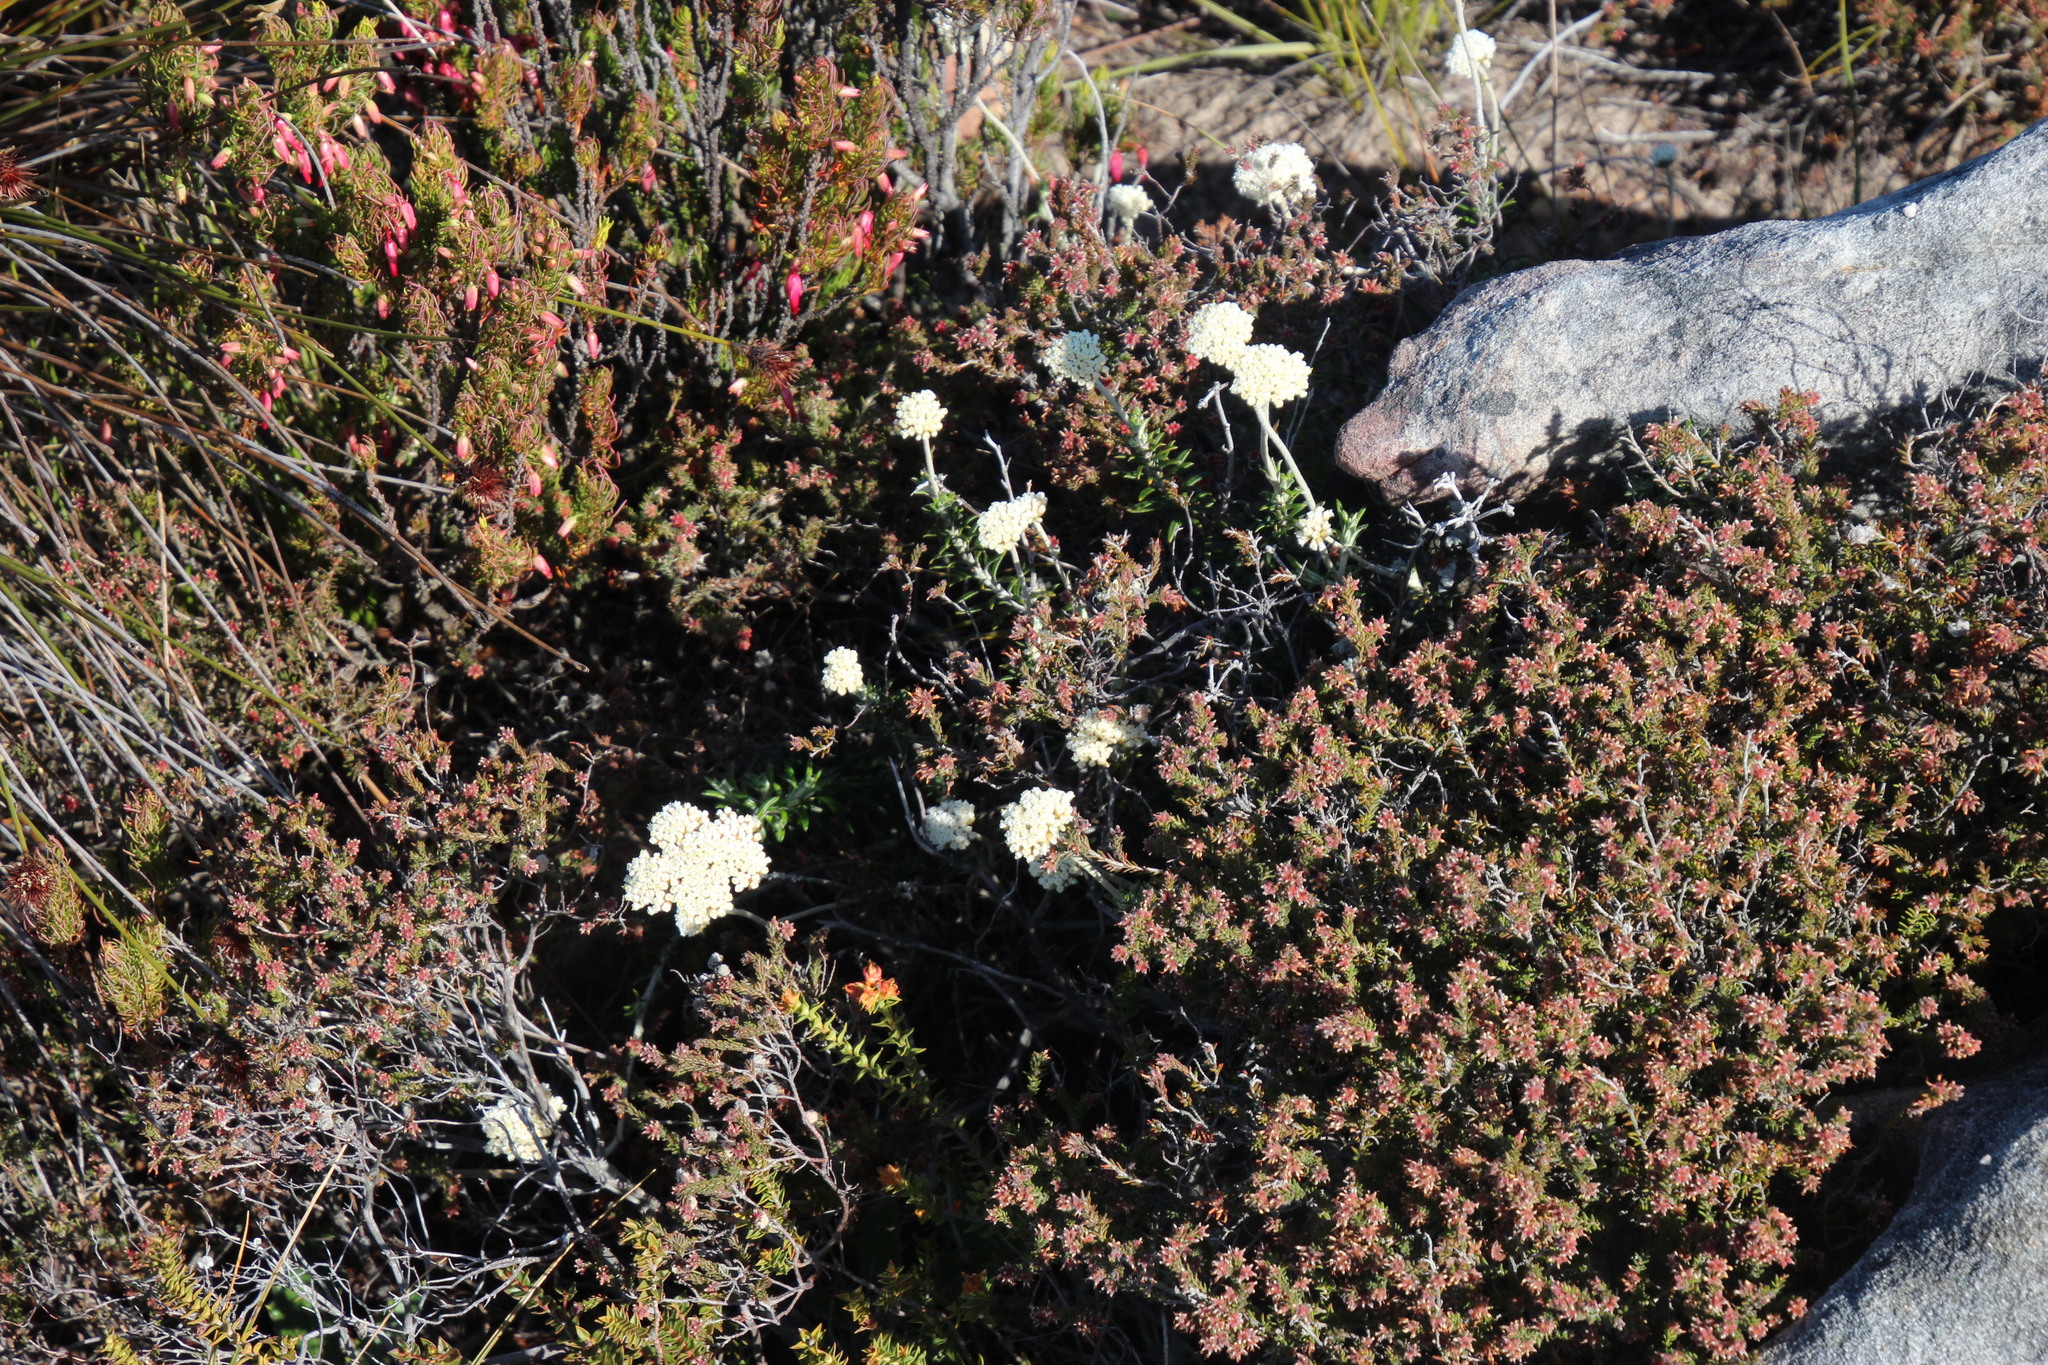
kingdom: Plantae
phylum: Tracheophyta
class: Magnoliopsida
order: Asterales
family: Asteraceae
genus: Anaxeton
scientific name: Anaxeton arborescens
